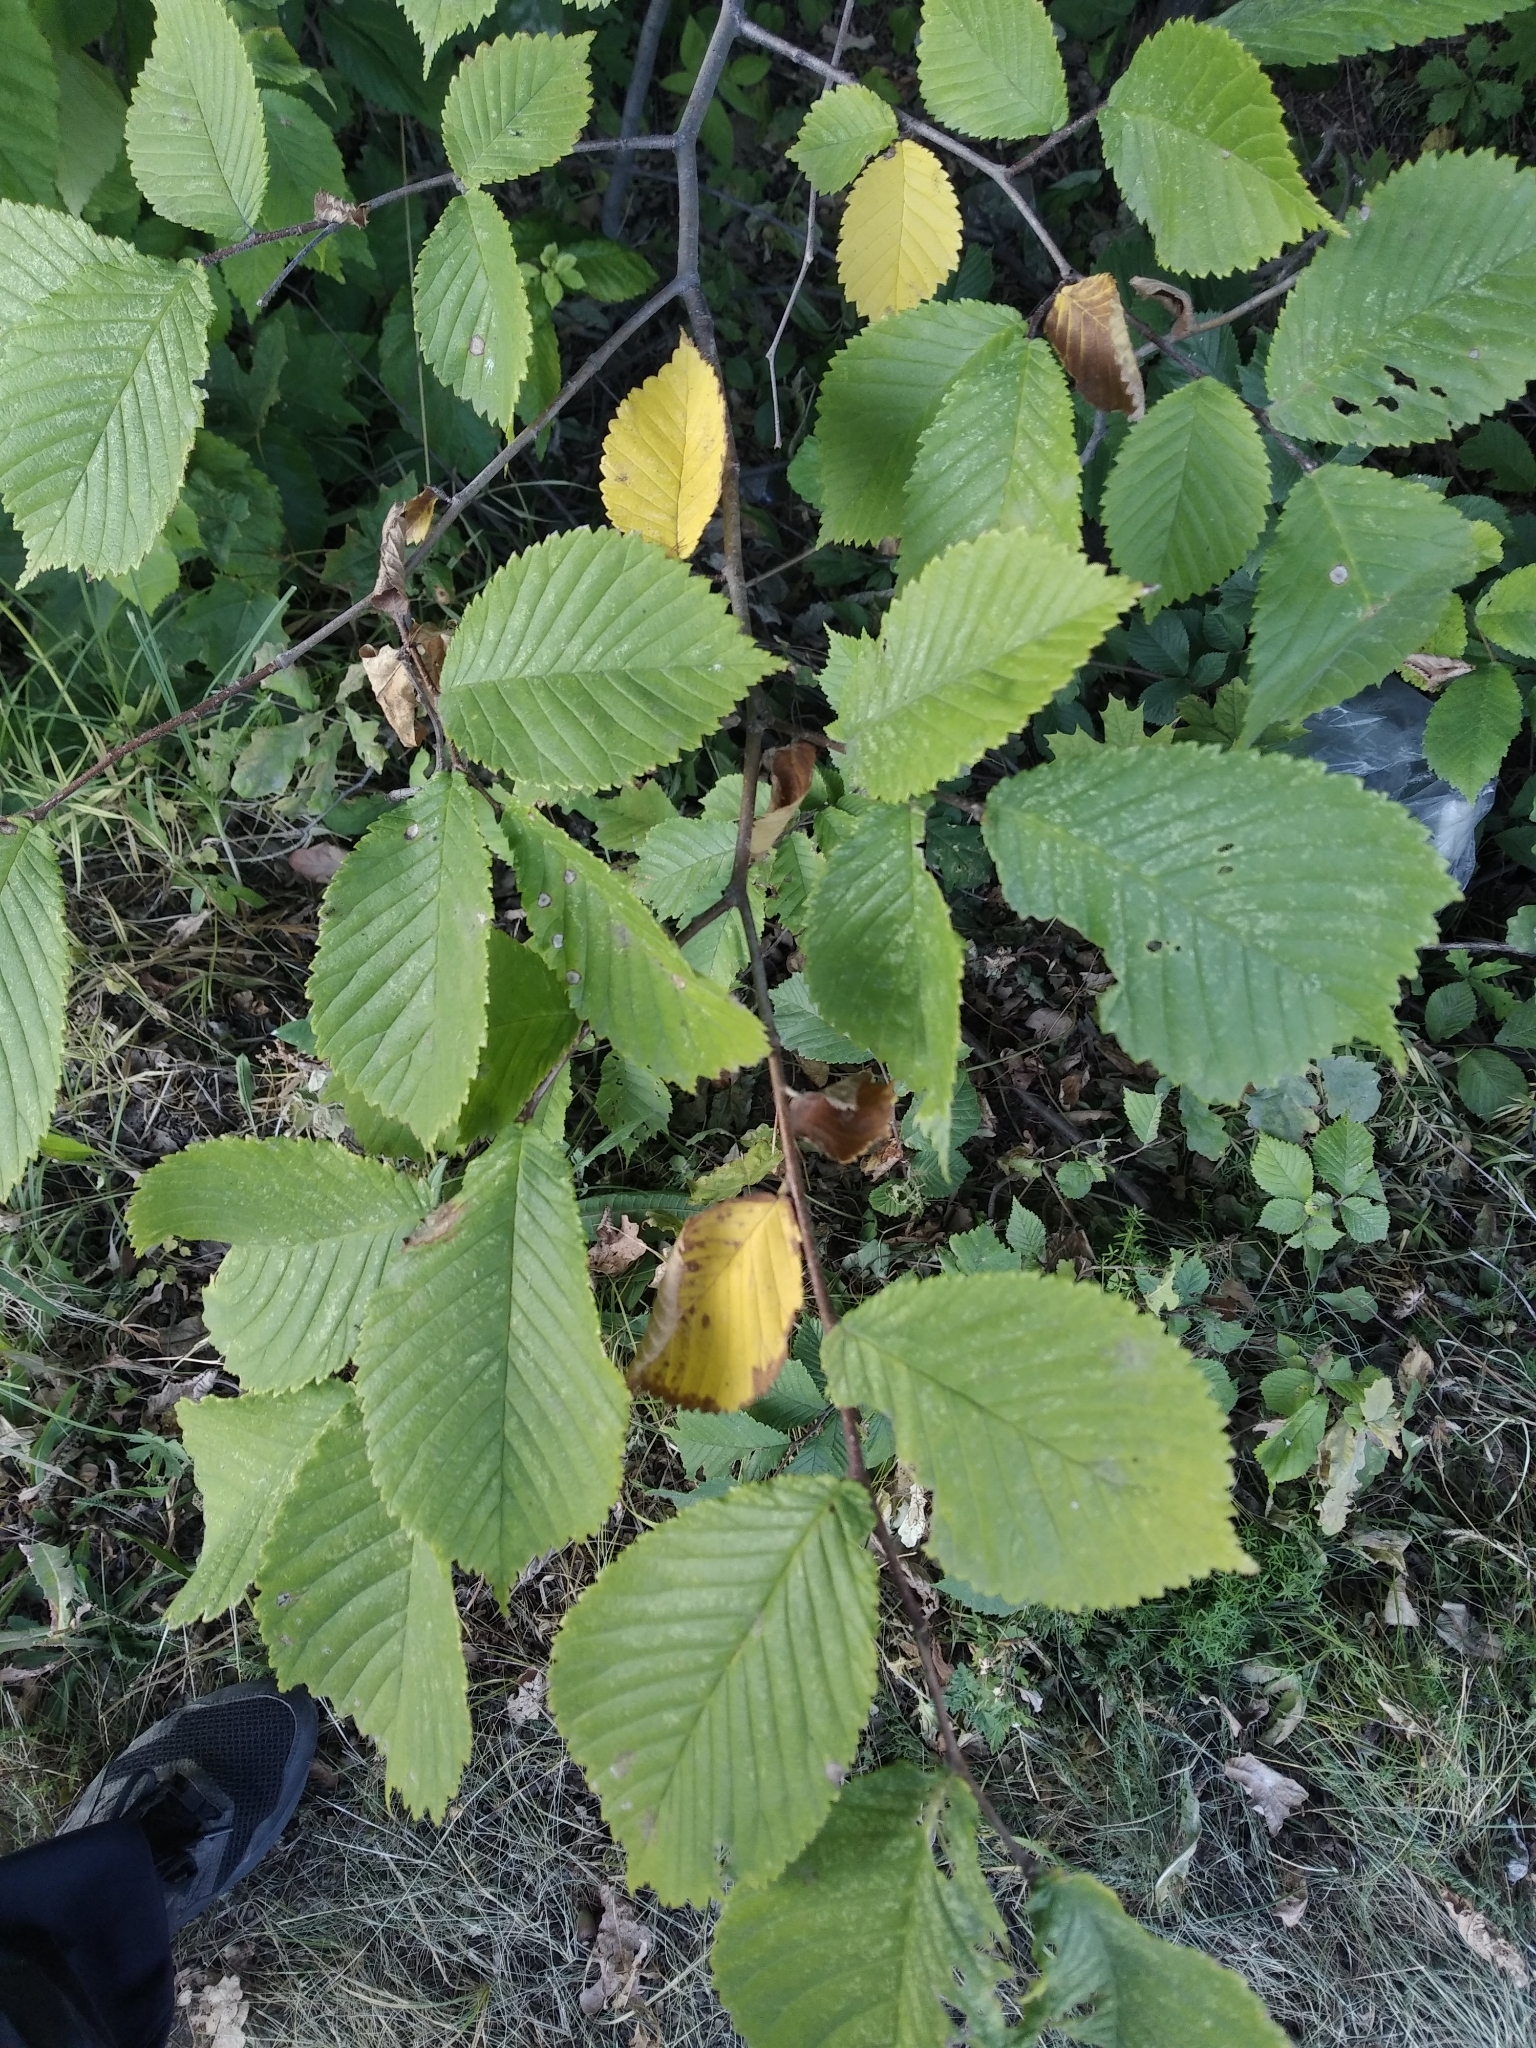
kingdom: Plantae
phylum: Tracheophyta
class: Magnoliopsida
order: Rosales
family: Ulmaceae
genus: Ulmus
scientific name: Ulmus glabra
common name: Wych elm
